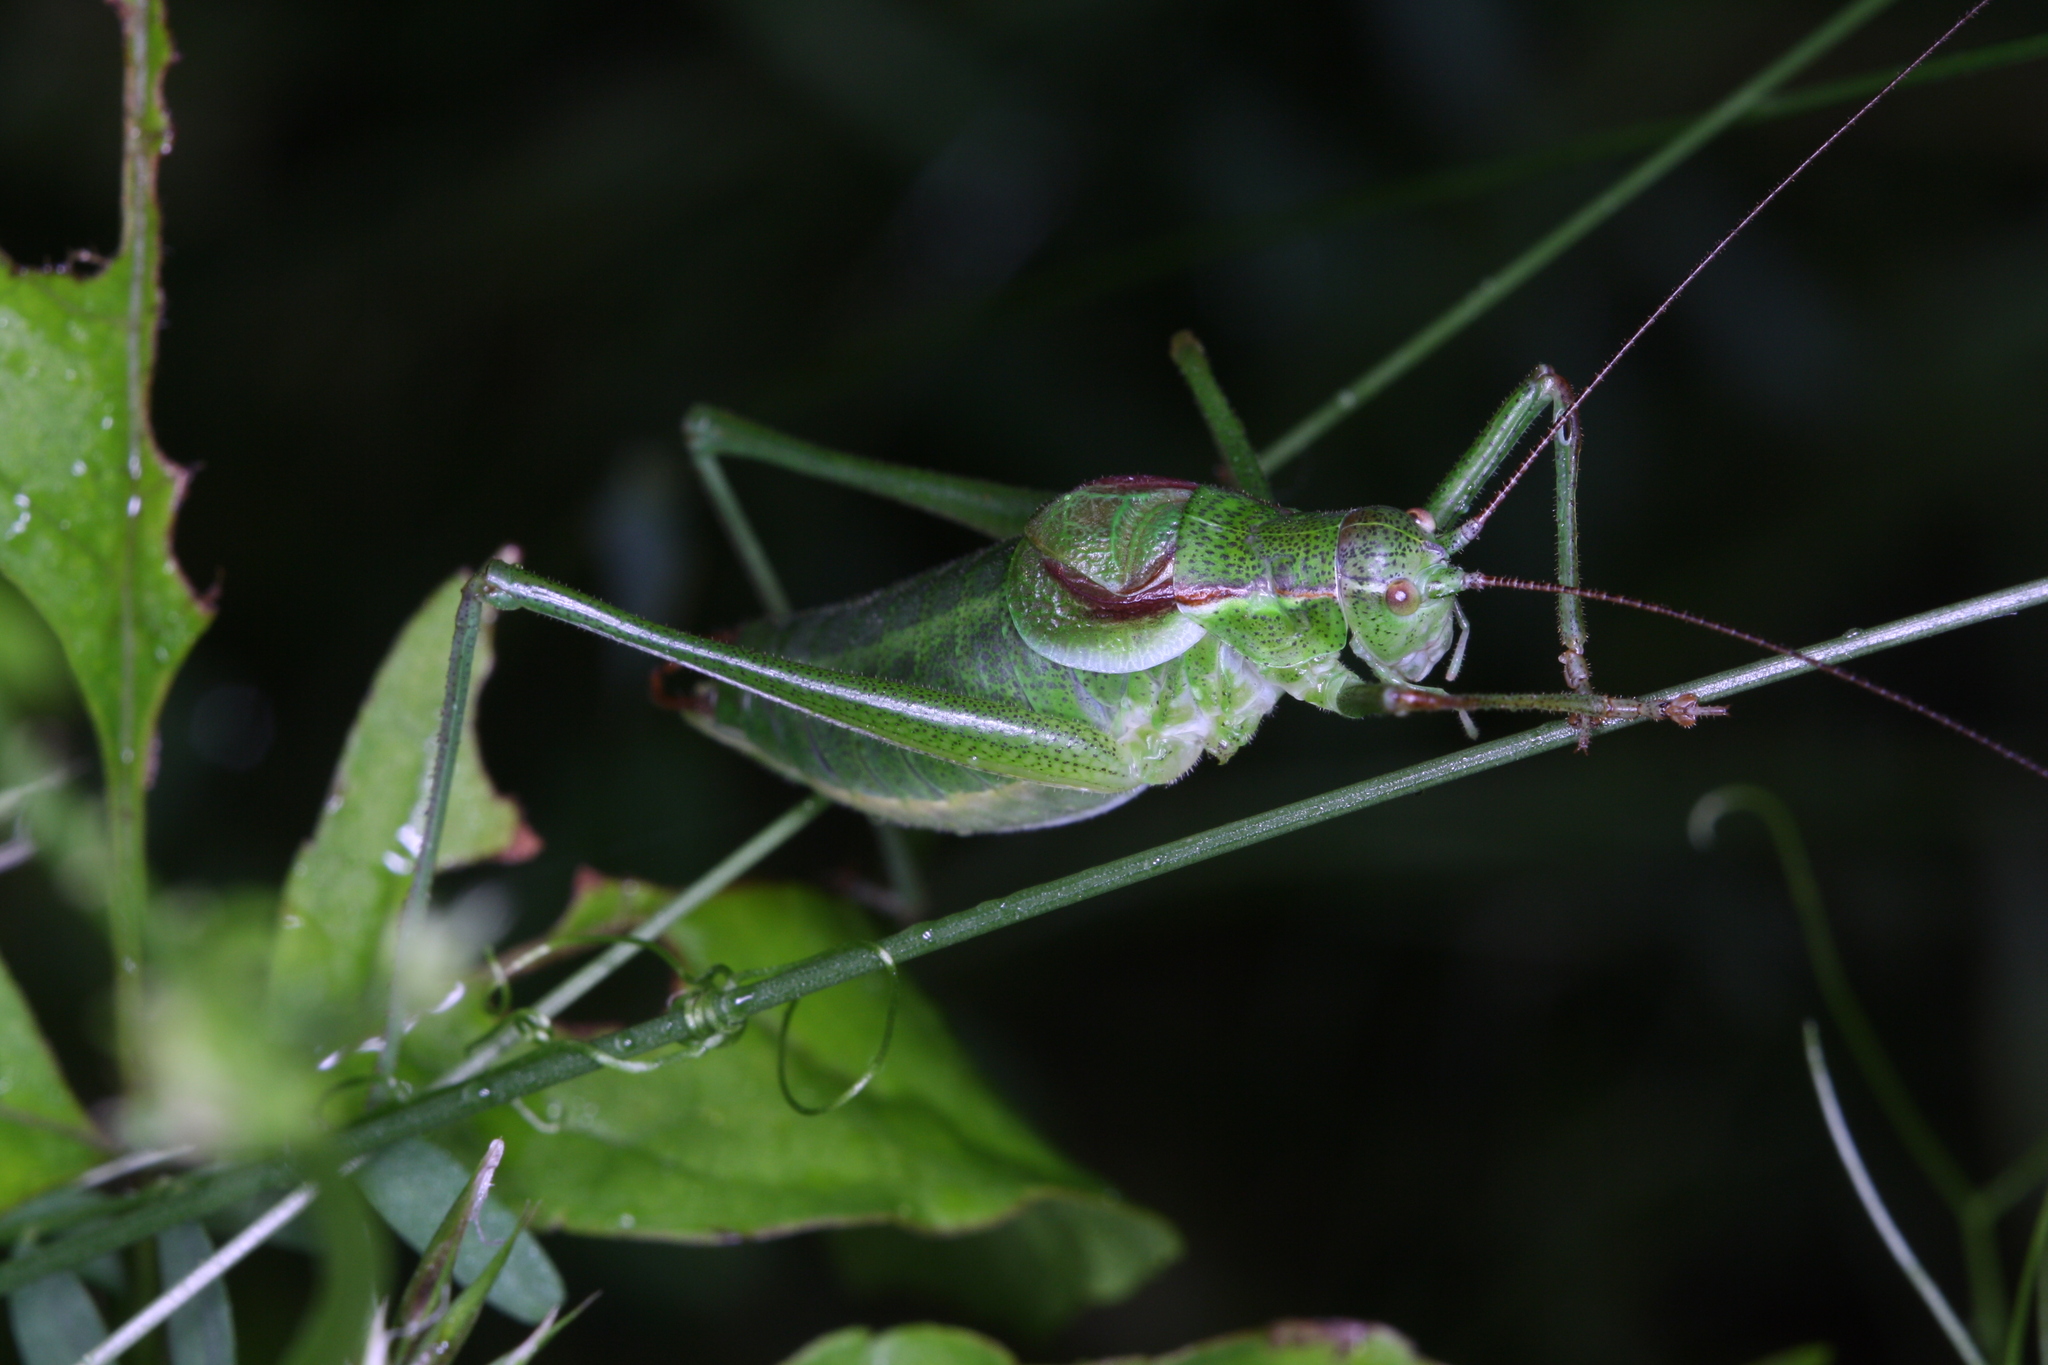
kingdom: Animalia
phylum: Arthropoda
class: Insecta
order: Orthoptera
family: Tettigoniidae
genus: Isophya
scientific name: Isophya speciosa
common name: Showy plump bush-cricket
